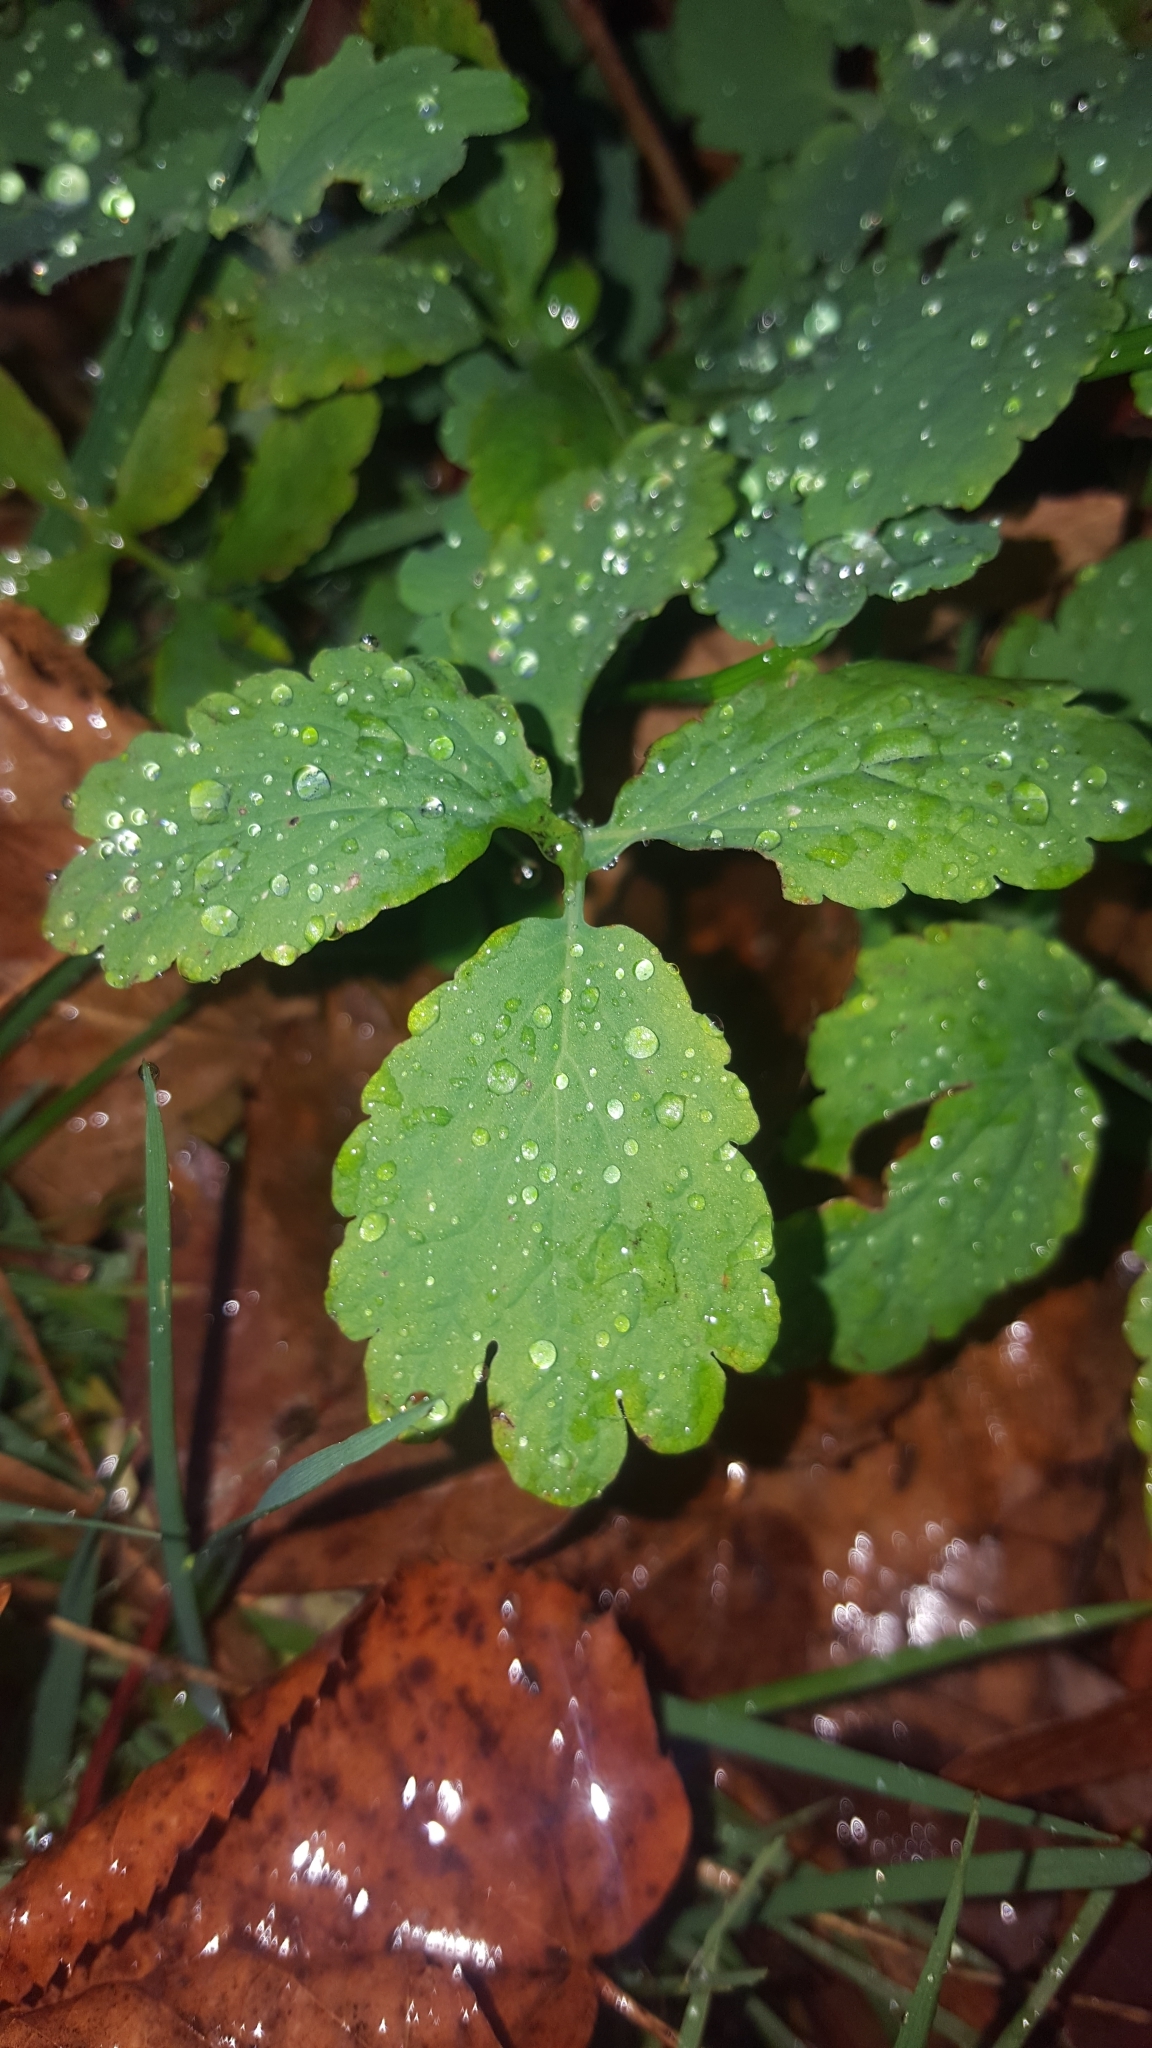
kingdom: Plantae
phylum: Tracheophyta
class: Magnoliopsida
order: Ranunculales
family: Papaveraceae
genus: Chelidonium
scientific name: Chelidonium majus
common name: Greater celandine
